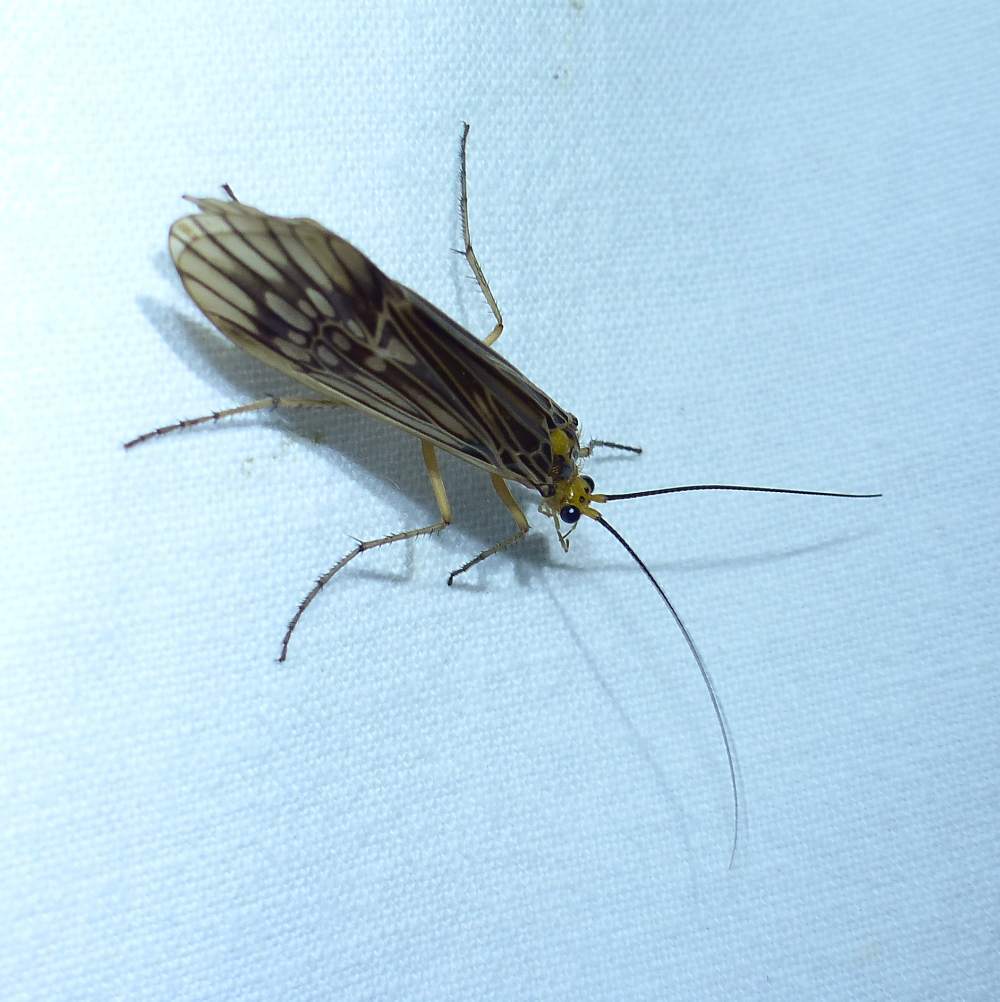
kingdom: Animalia
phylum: Arthropoda
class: Insecta
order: Trichoptera
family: Limnephilidae
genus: Hydatophylax
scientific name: Hydatophylax argus
